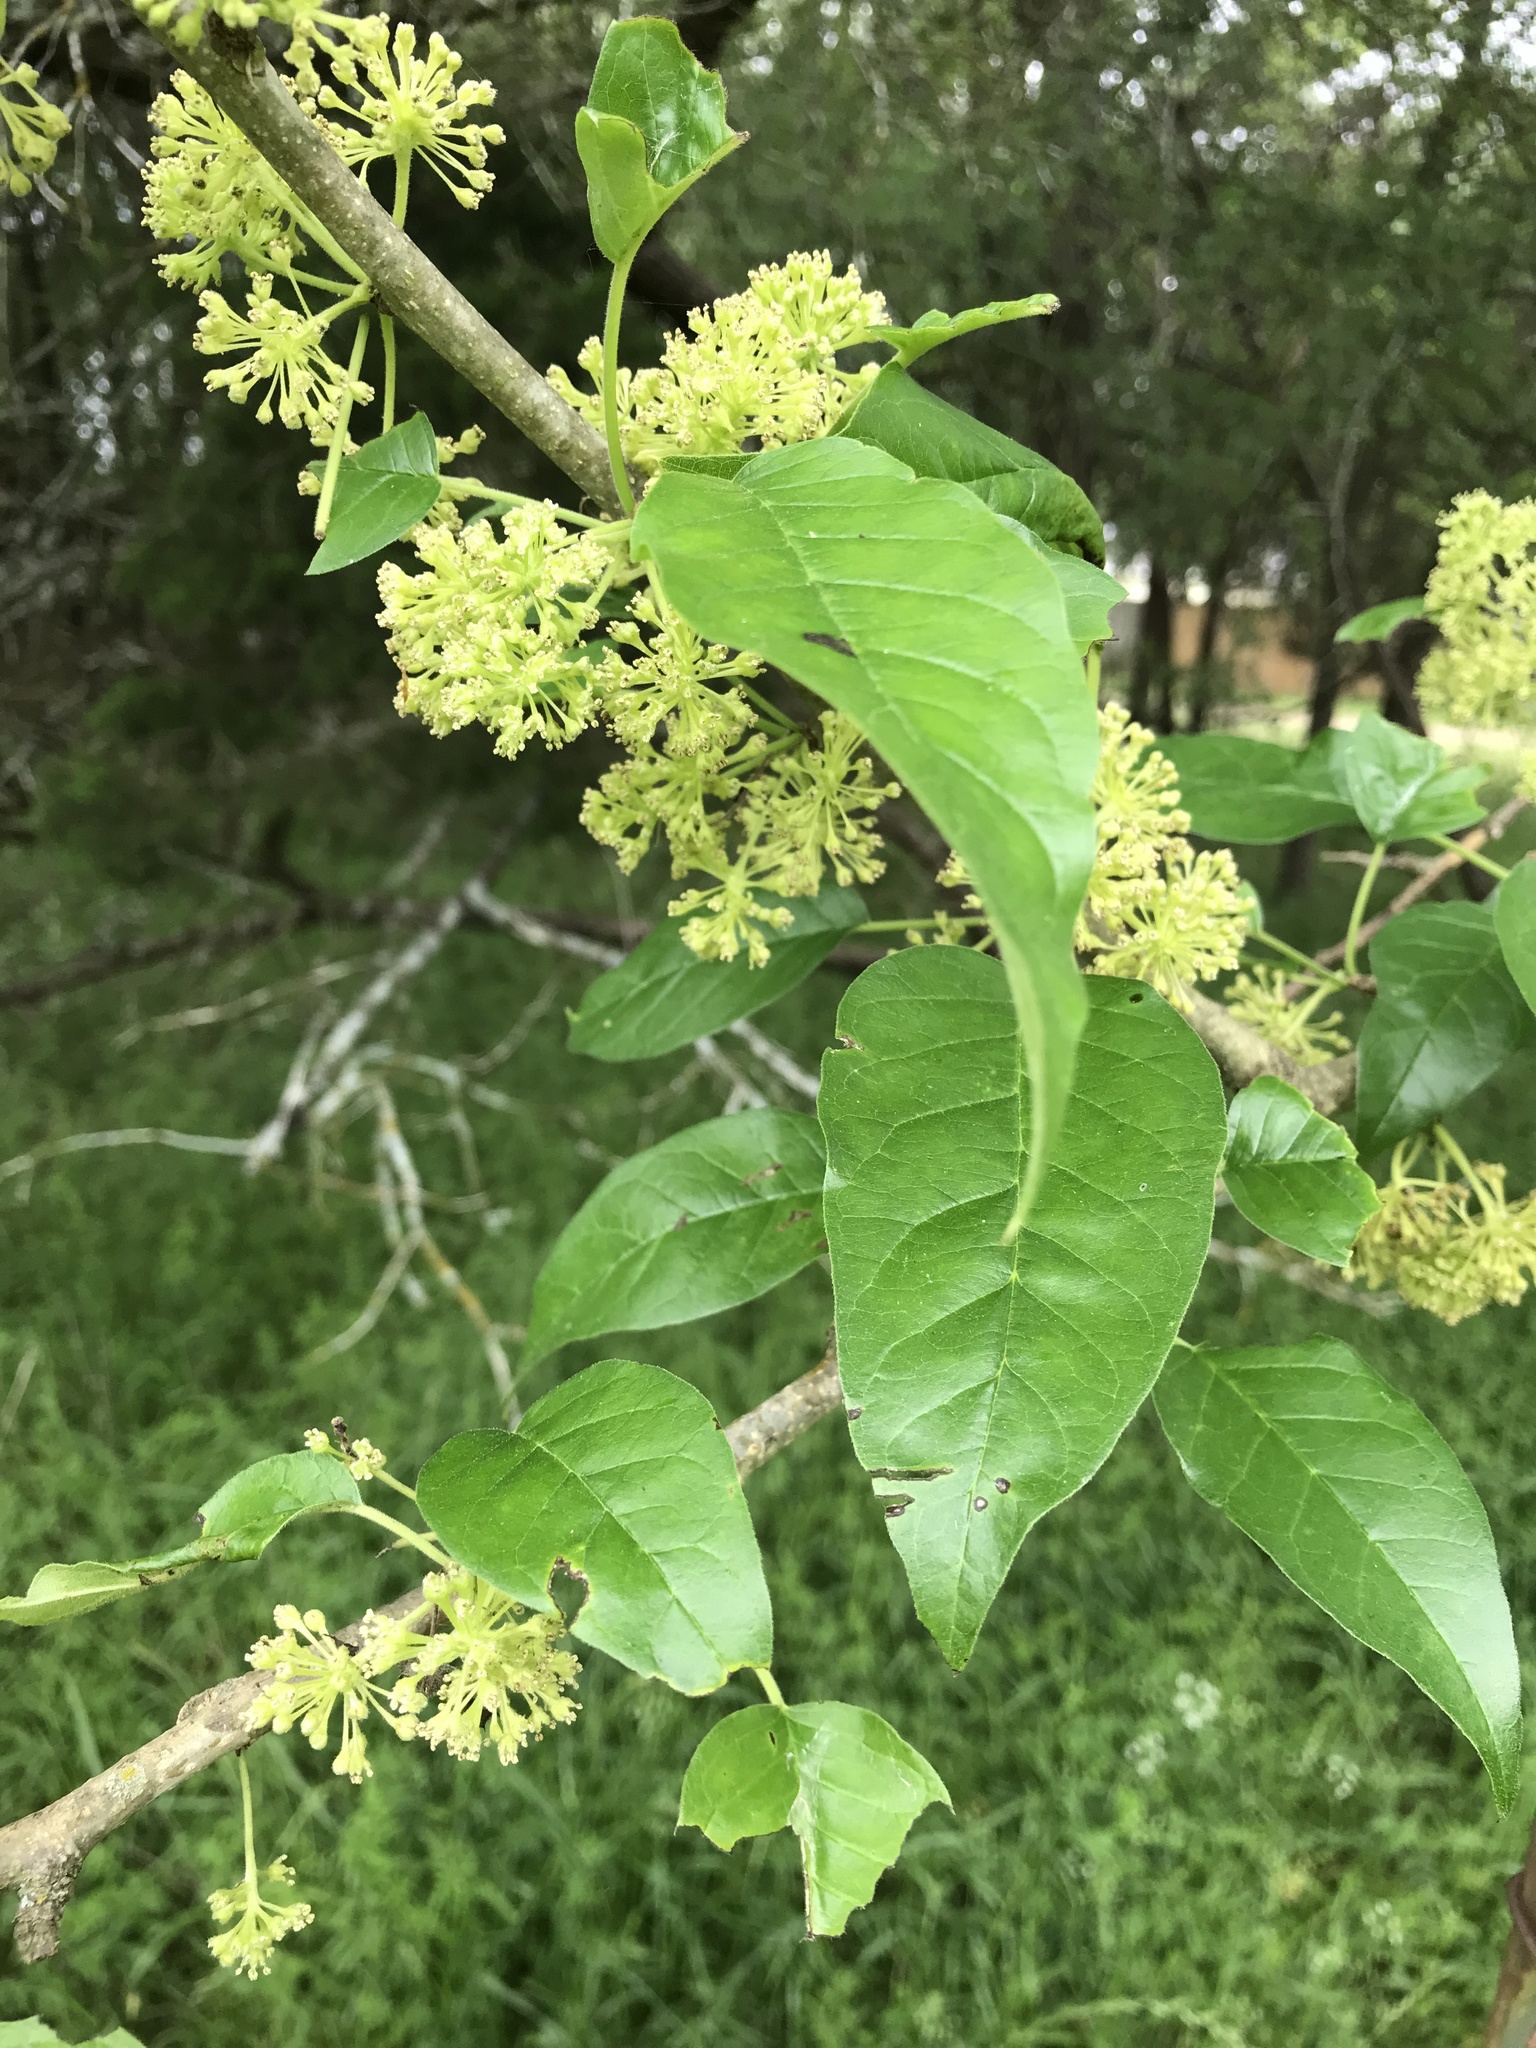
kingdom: Plantae
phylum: Tracheophyta
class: Magnoliopsida
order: Rosales
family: Moraceae
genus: Maclura
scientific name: Maclura pomifera
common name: Osage-orange
